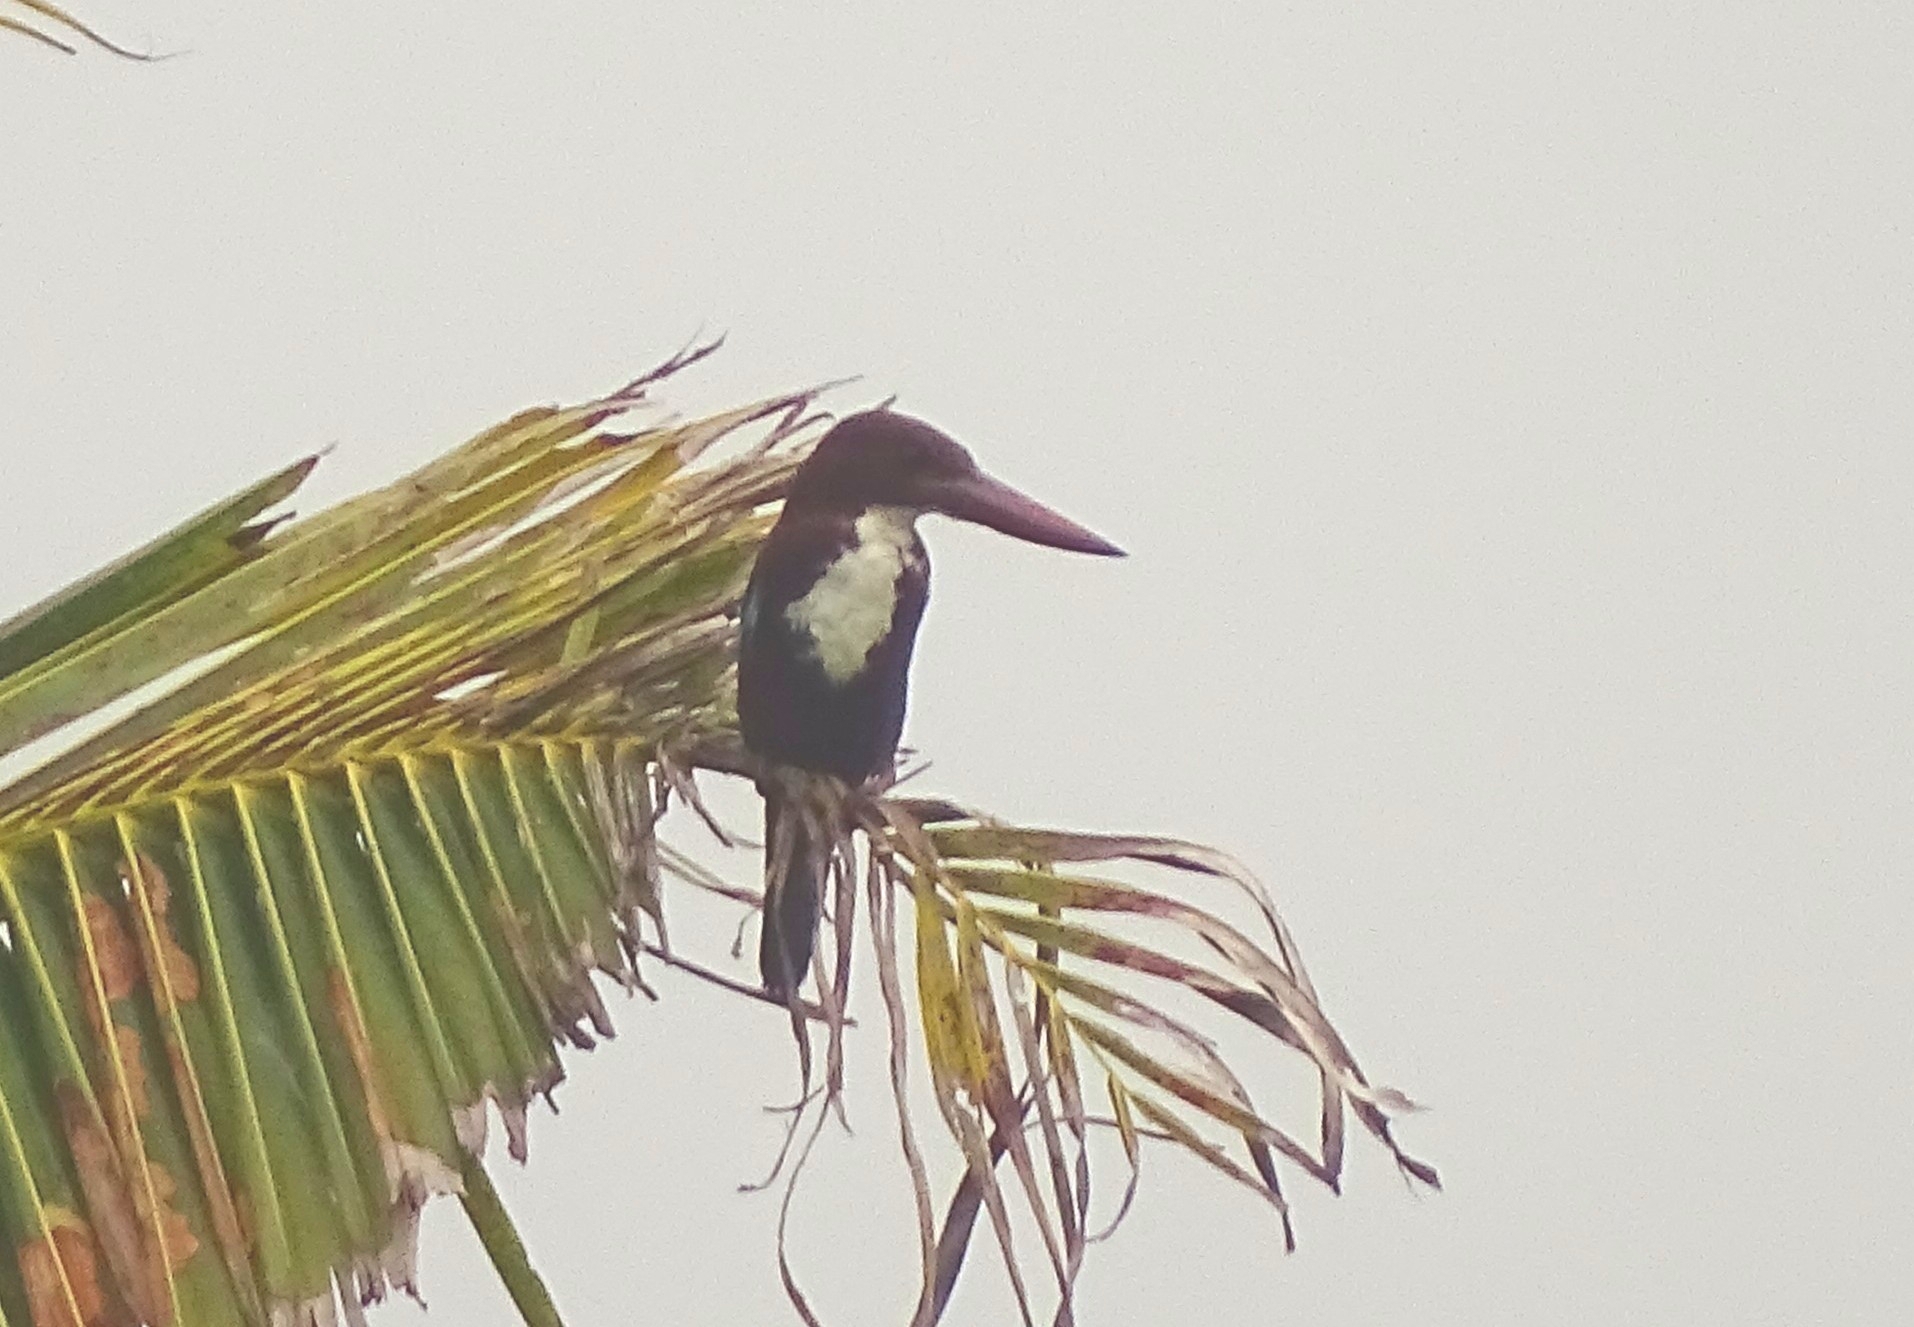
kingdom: Animalia
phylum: Chordata
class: Aves
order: Coraciiformes
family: Alcedinidae
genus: Halcyon
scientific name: Halcyon smyrnensis
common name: White-throated kingfisher
